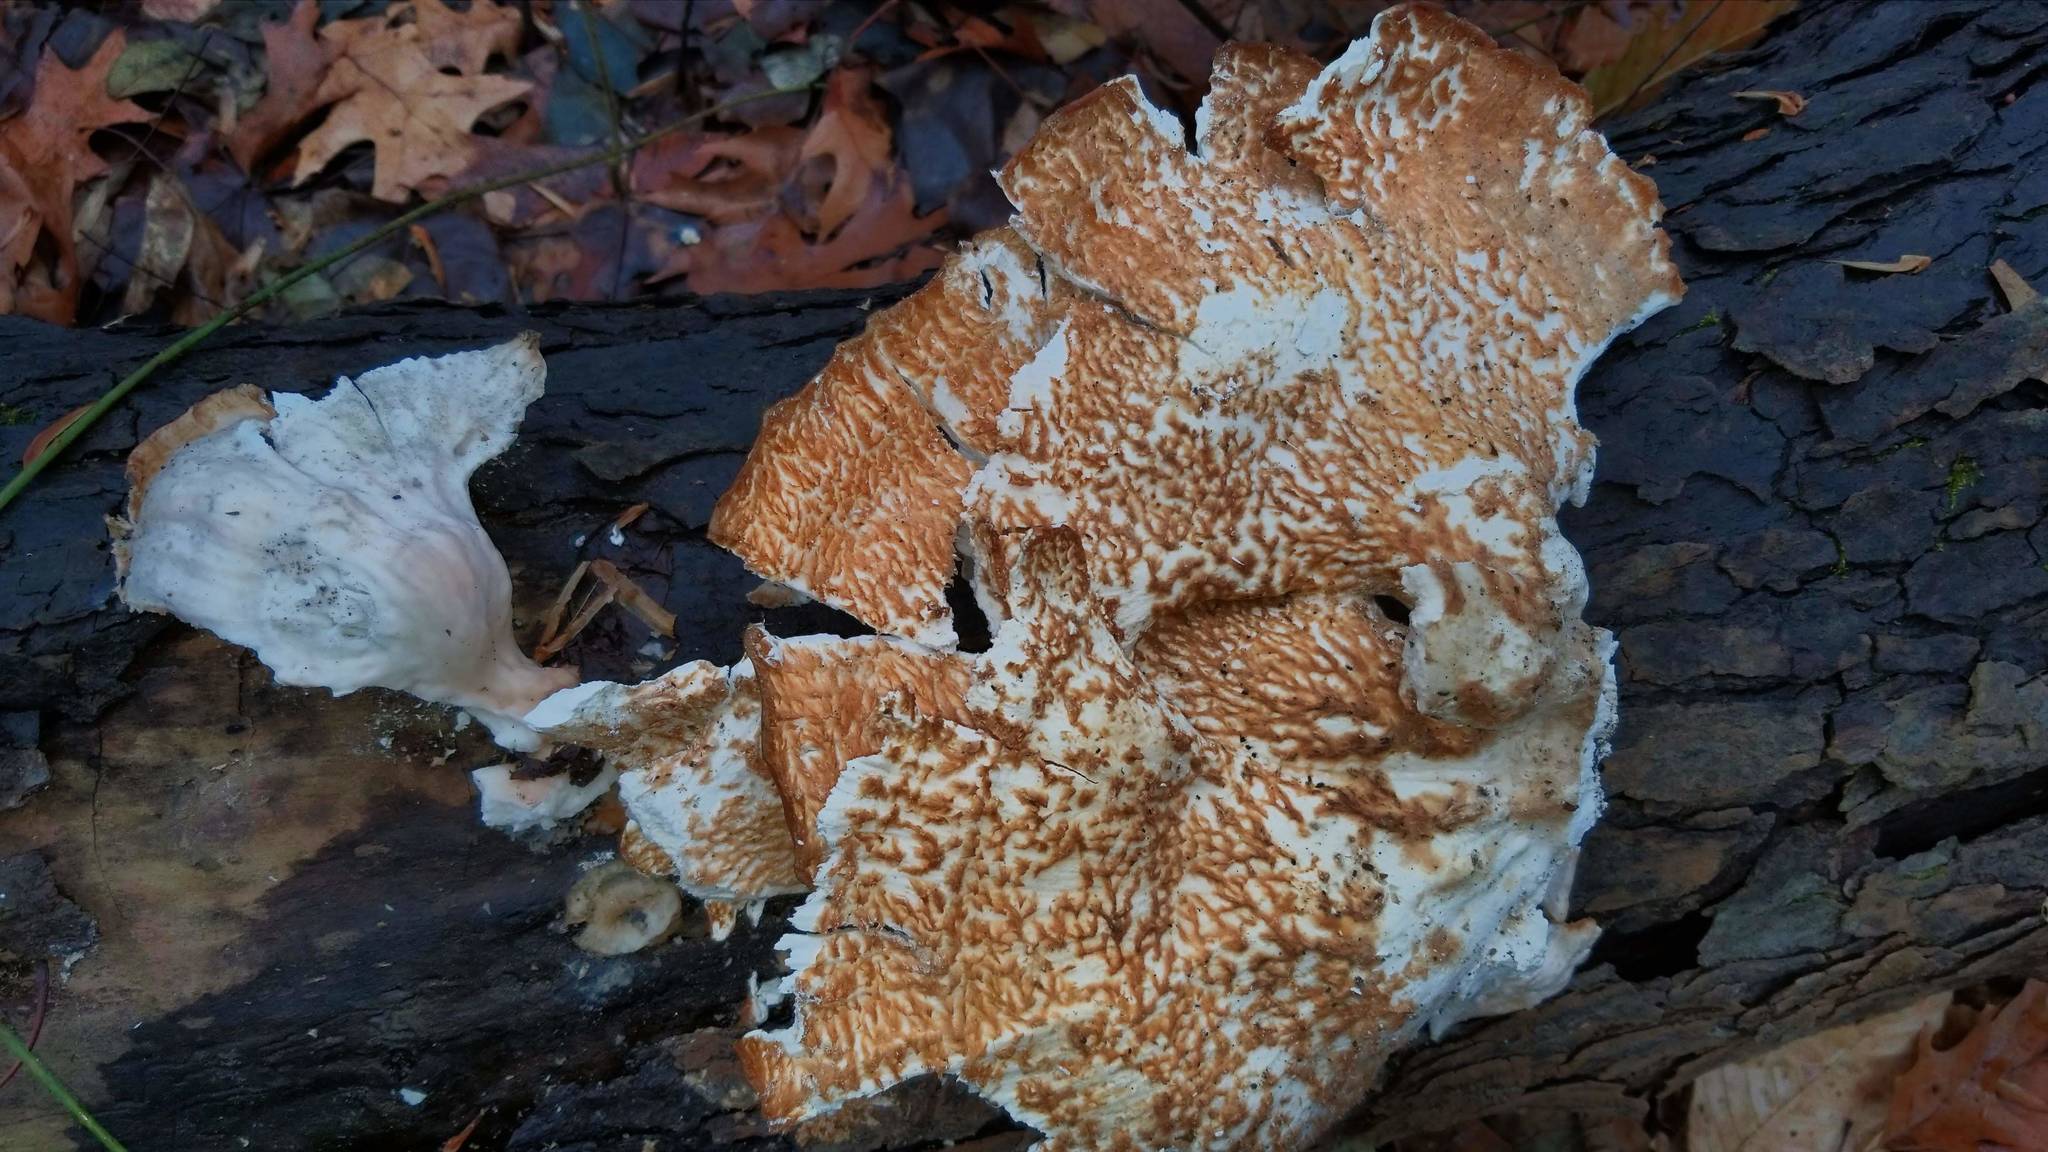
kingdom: Fungi
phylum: Basidiomycota
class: Agaricomycetes
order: Polyporales
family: Laetiporaceae
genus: Laetiporus
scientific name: Laetiporus sulphureus
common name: Chicken of the woods
